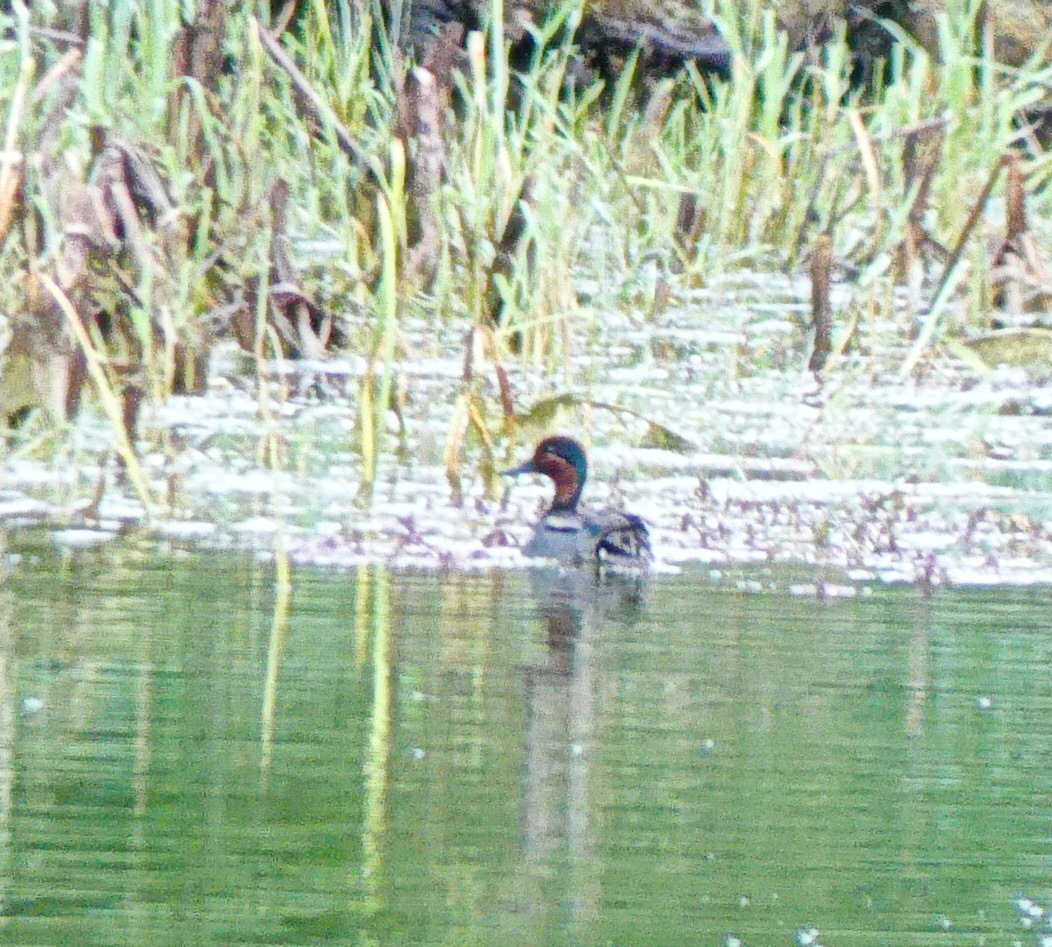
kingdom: Animalia
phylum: Chordata
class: Aves
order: Anseriformes
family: Anatidae
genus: Anas
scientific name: Anas crecca
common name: Eurasian teal
